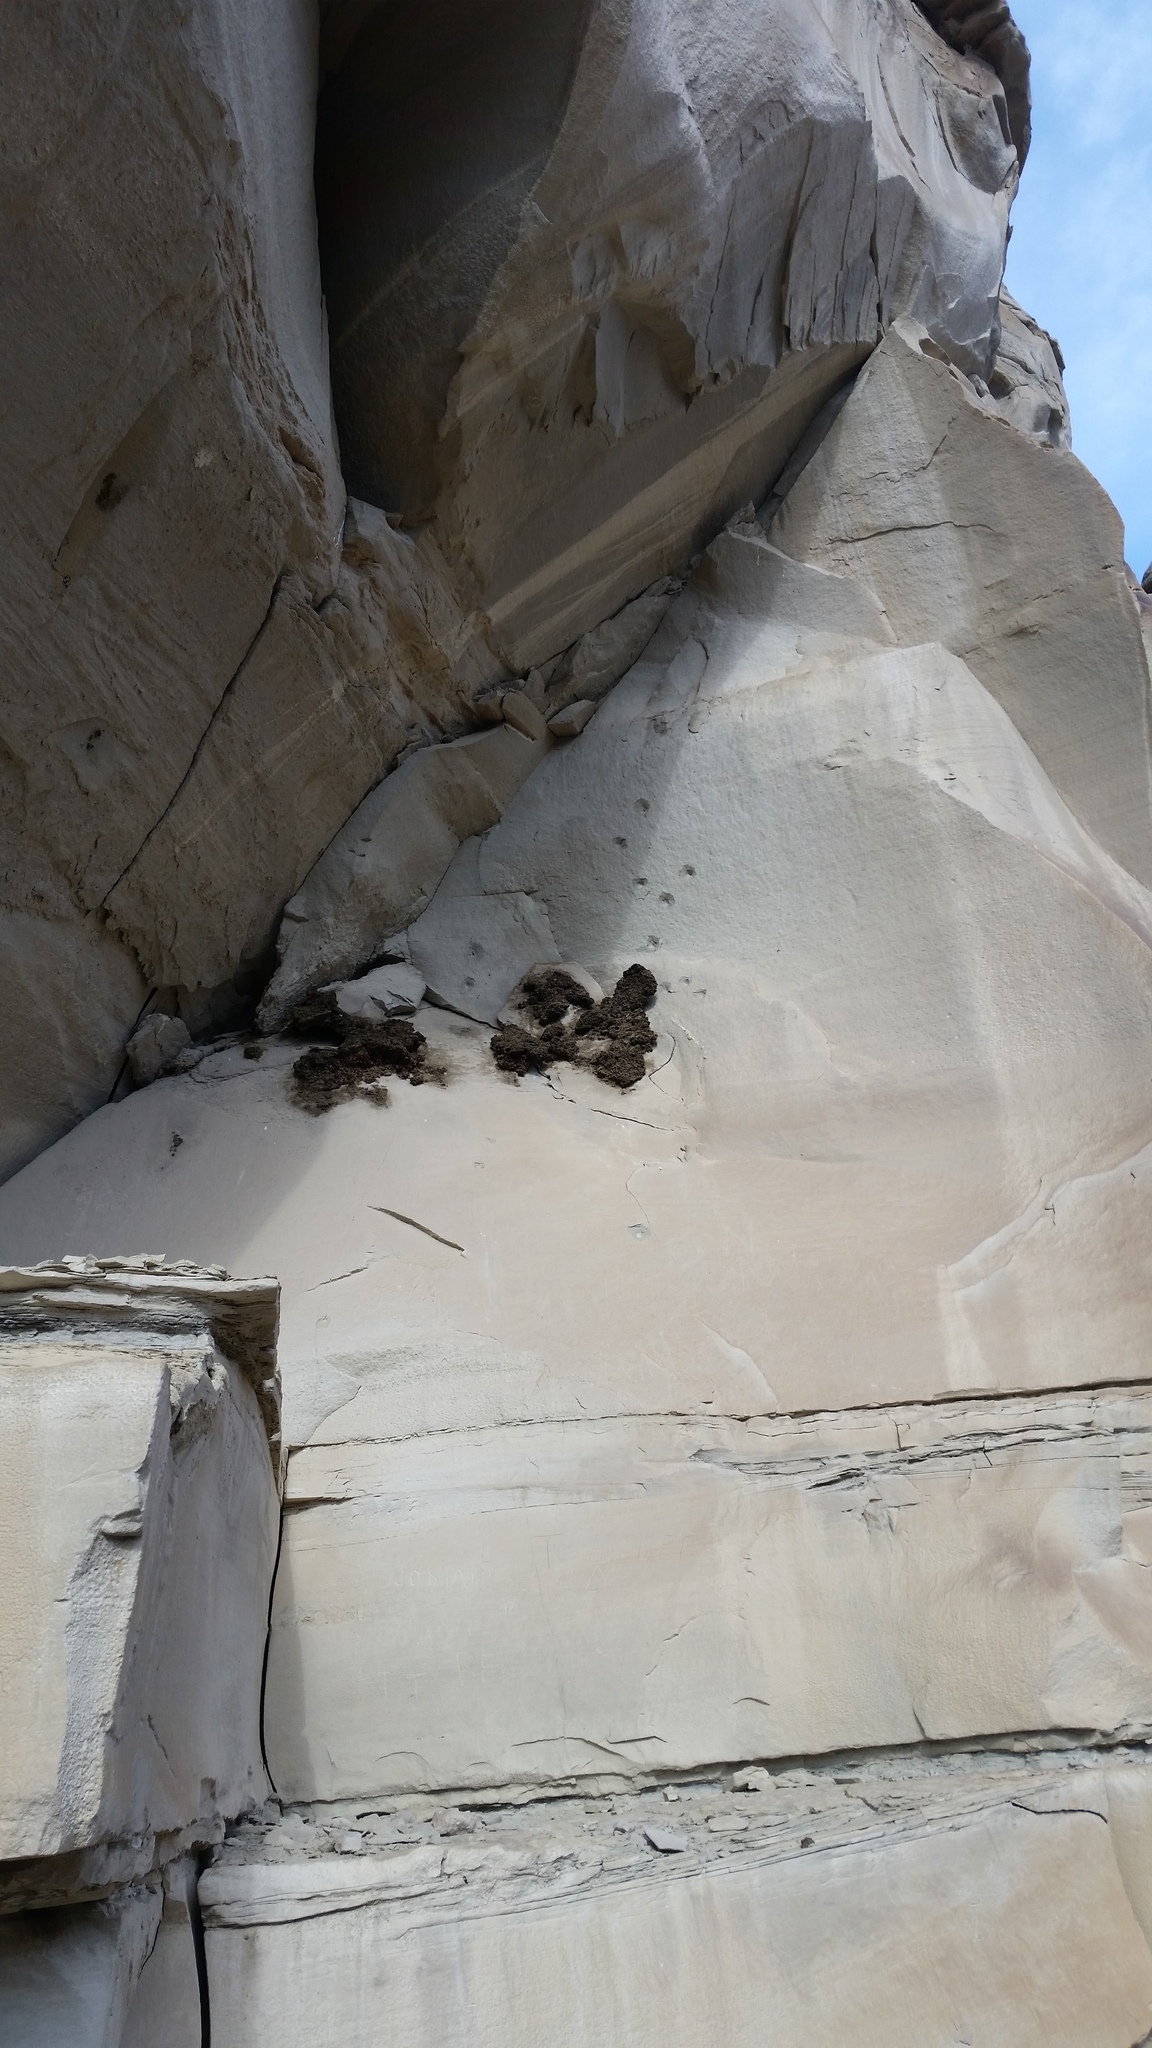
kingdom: Animalia
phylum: Chordata
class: Aves
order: Passeriformes
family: Hirundinidae
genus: Petrochelidon
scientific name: Petrochelidon pyrrhonota
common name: American cliff swallow
